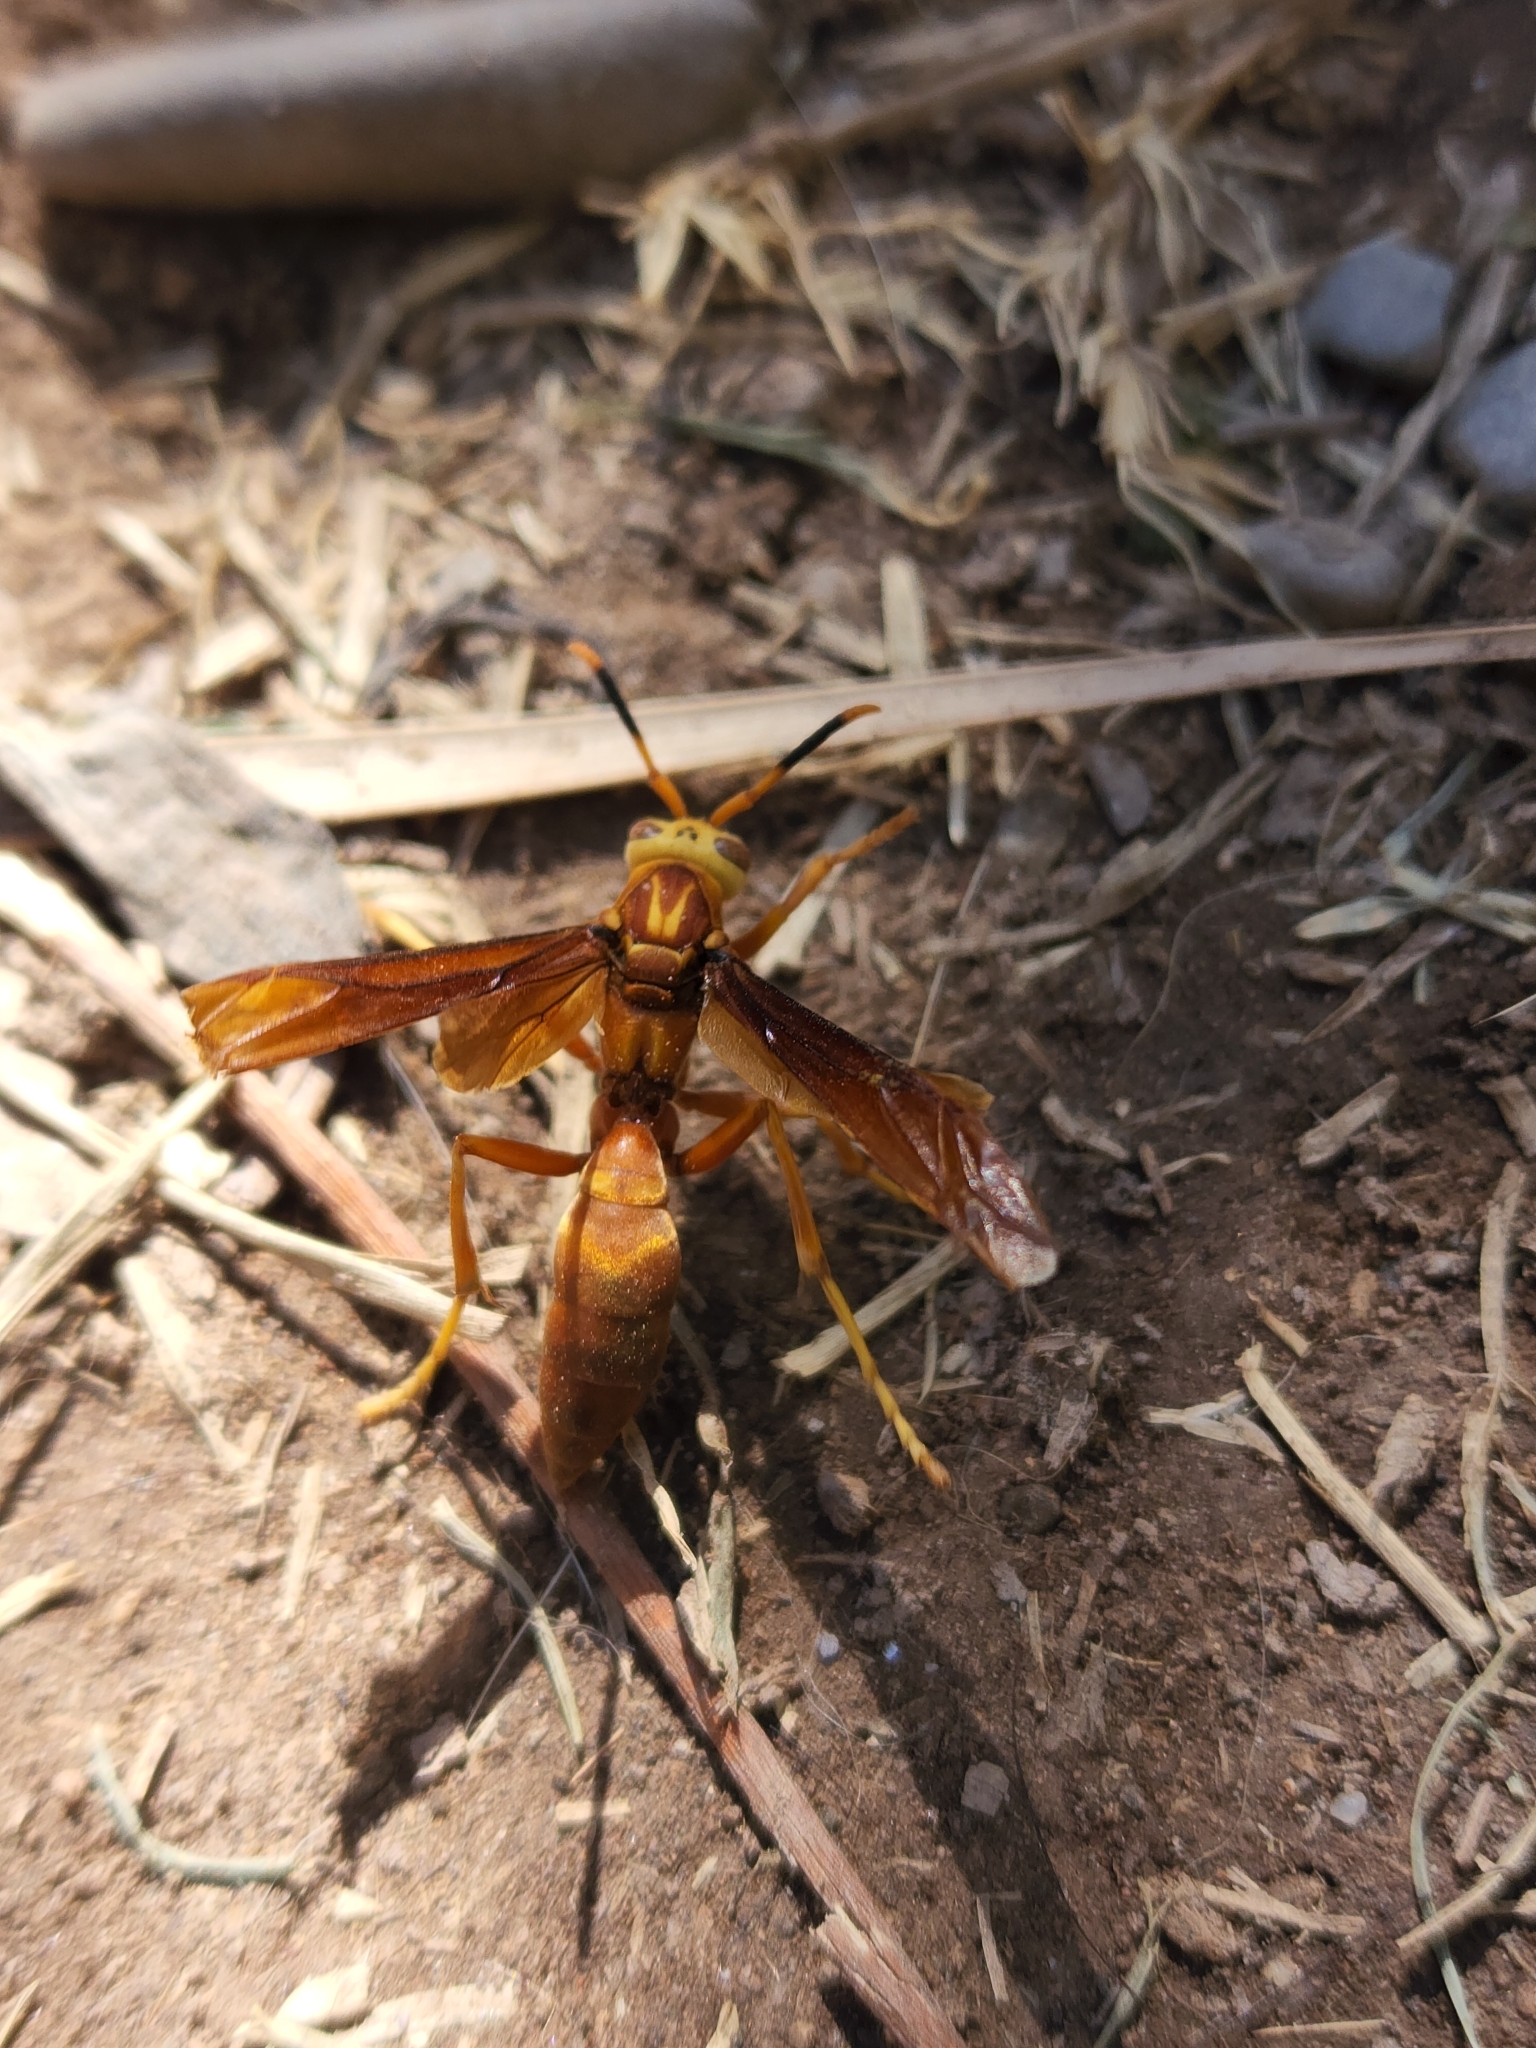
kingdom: Animalia
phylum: Arthropoda
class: Insecta
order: Hymenoptera
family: Eumenidae
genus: Polistes
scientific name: Polistes cavapyta
